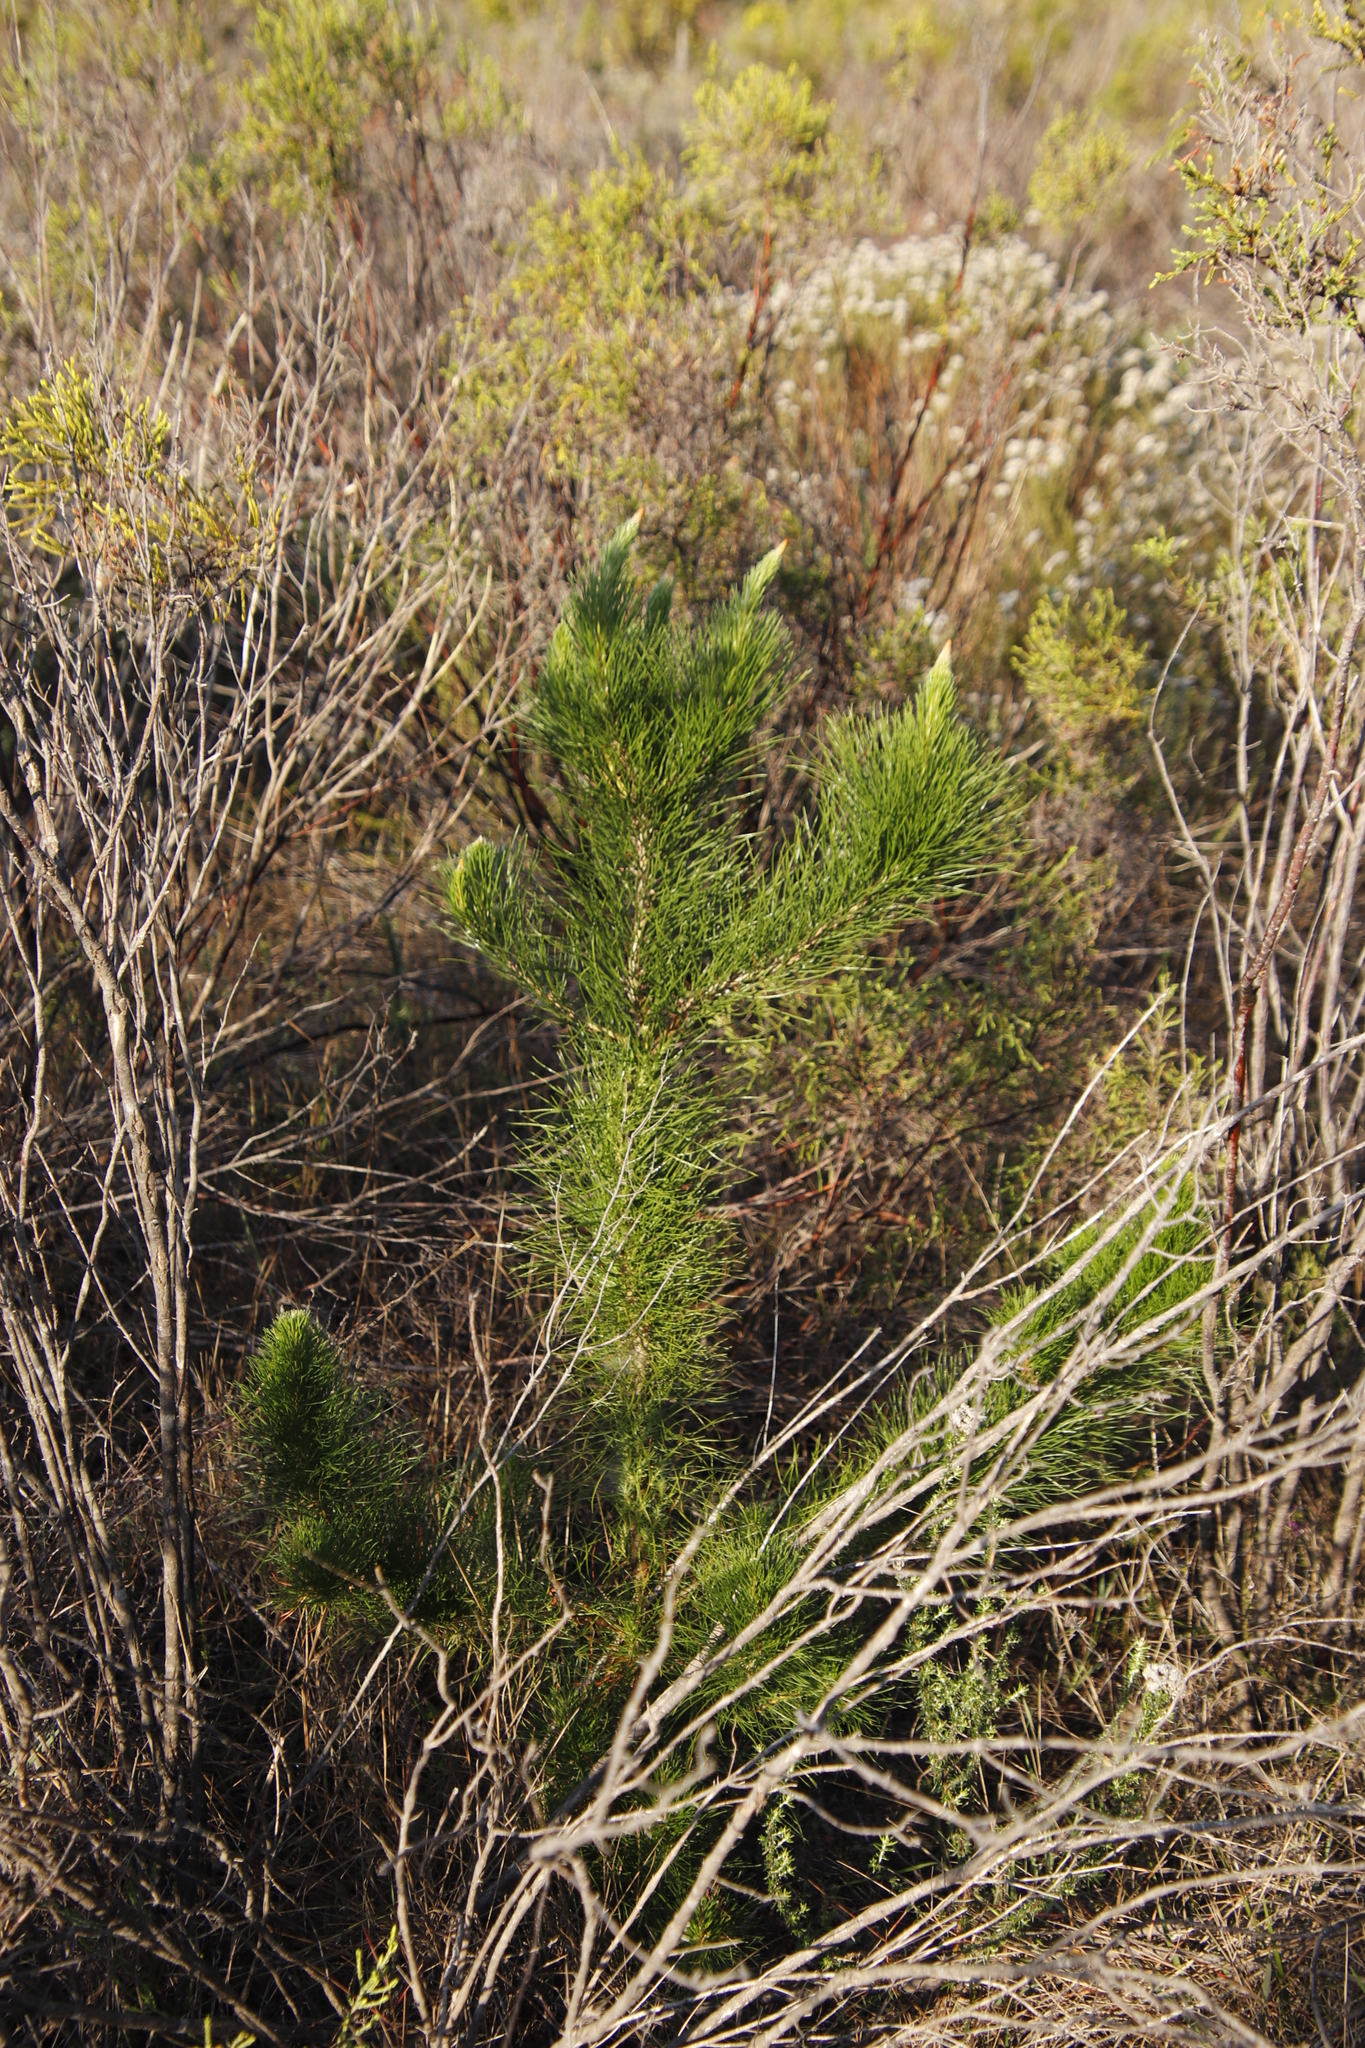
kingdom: Plantae
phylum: Tracheophyta
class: Pinopsida
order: Pinales
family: Pinaceae
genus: Pinus
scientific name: Pinus radiata
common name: Monterey pine
